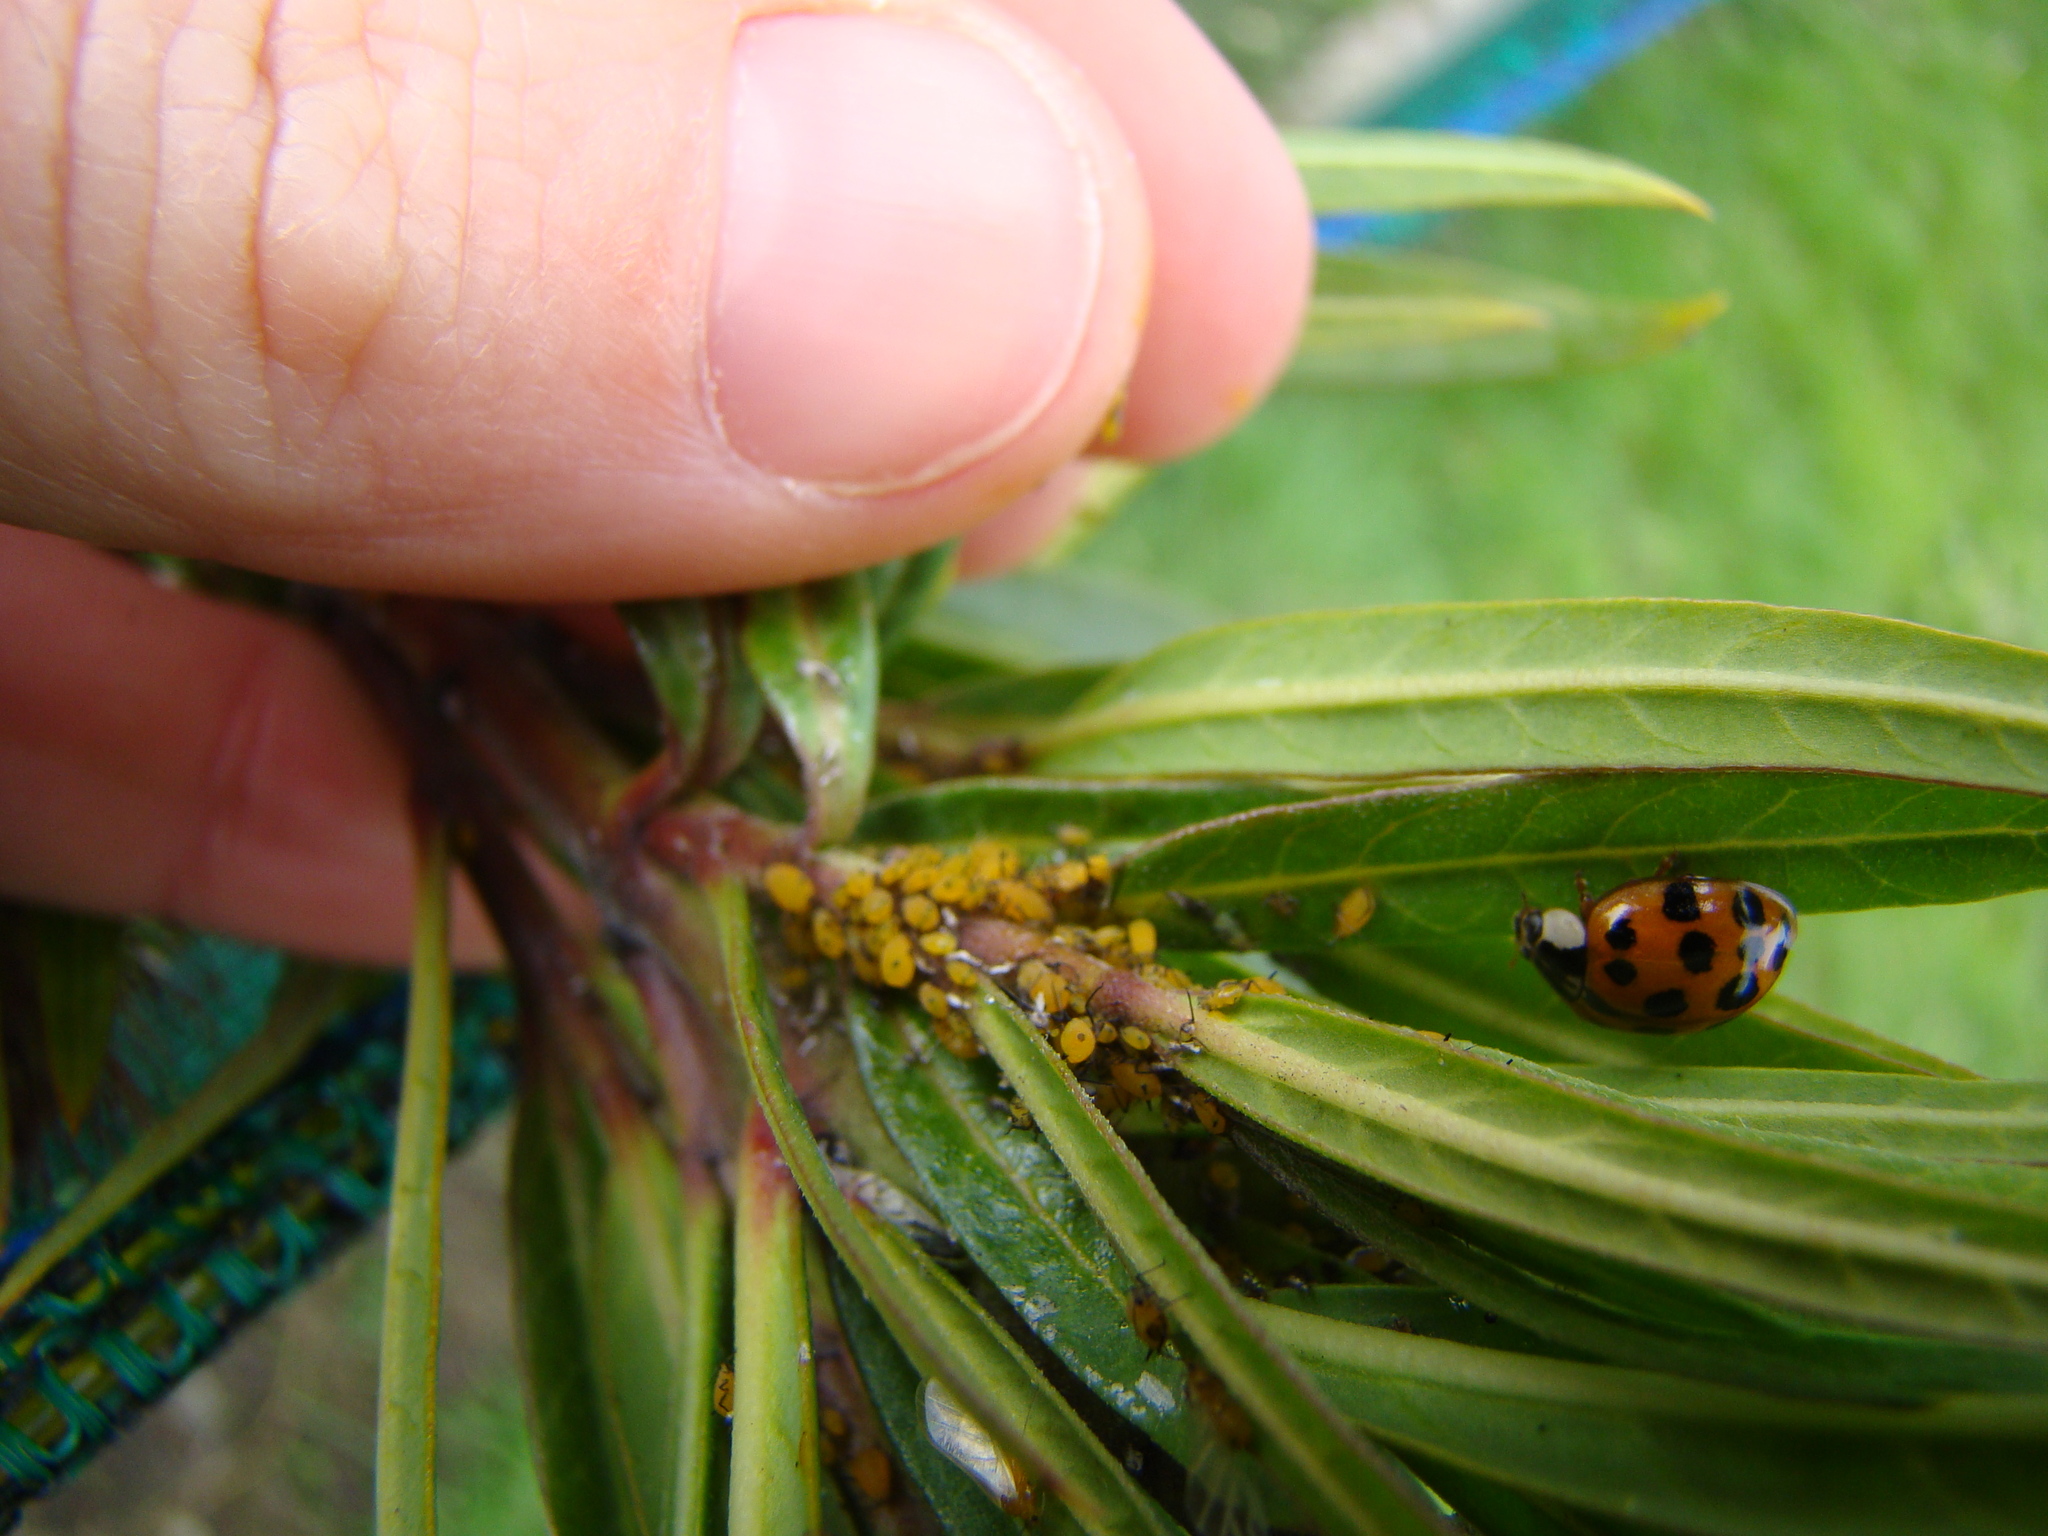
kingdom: Animalia
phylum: Arthropoda
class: Insecta
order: Hemiptera
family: Aphididae
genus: Aphis
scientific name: Aphis nerii
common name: Oleander aphid
